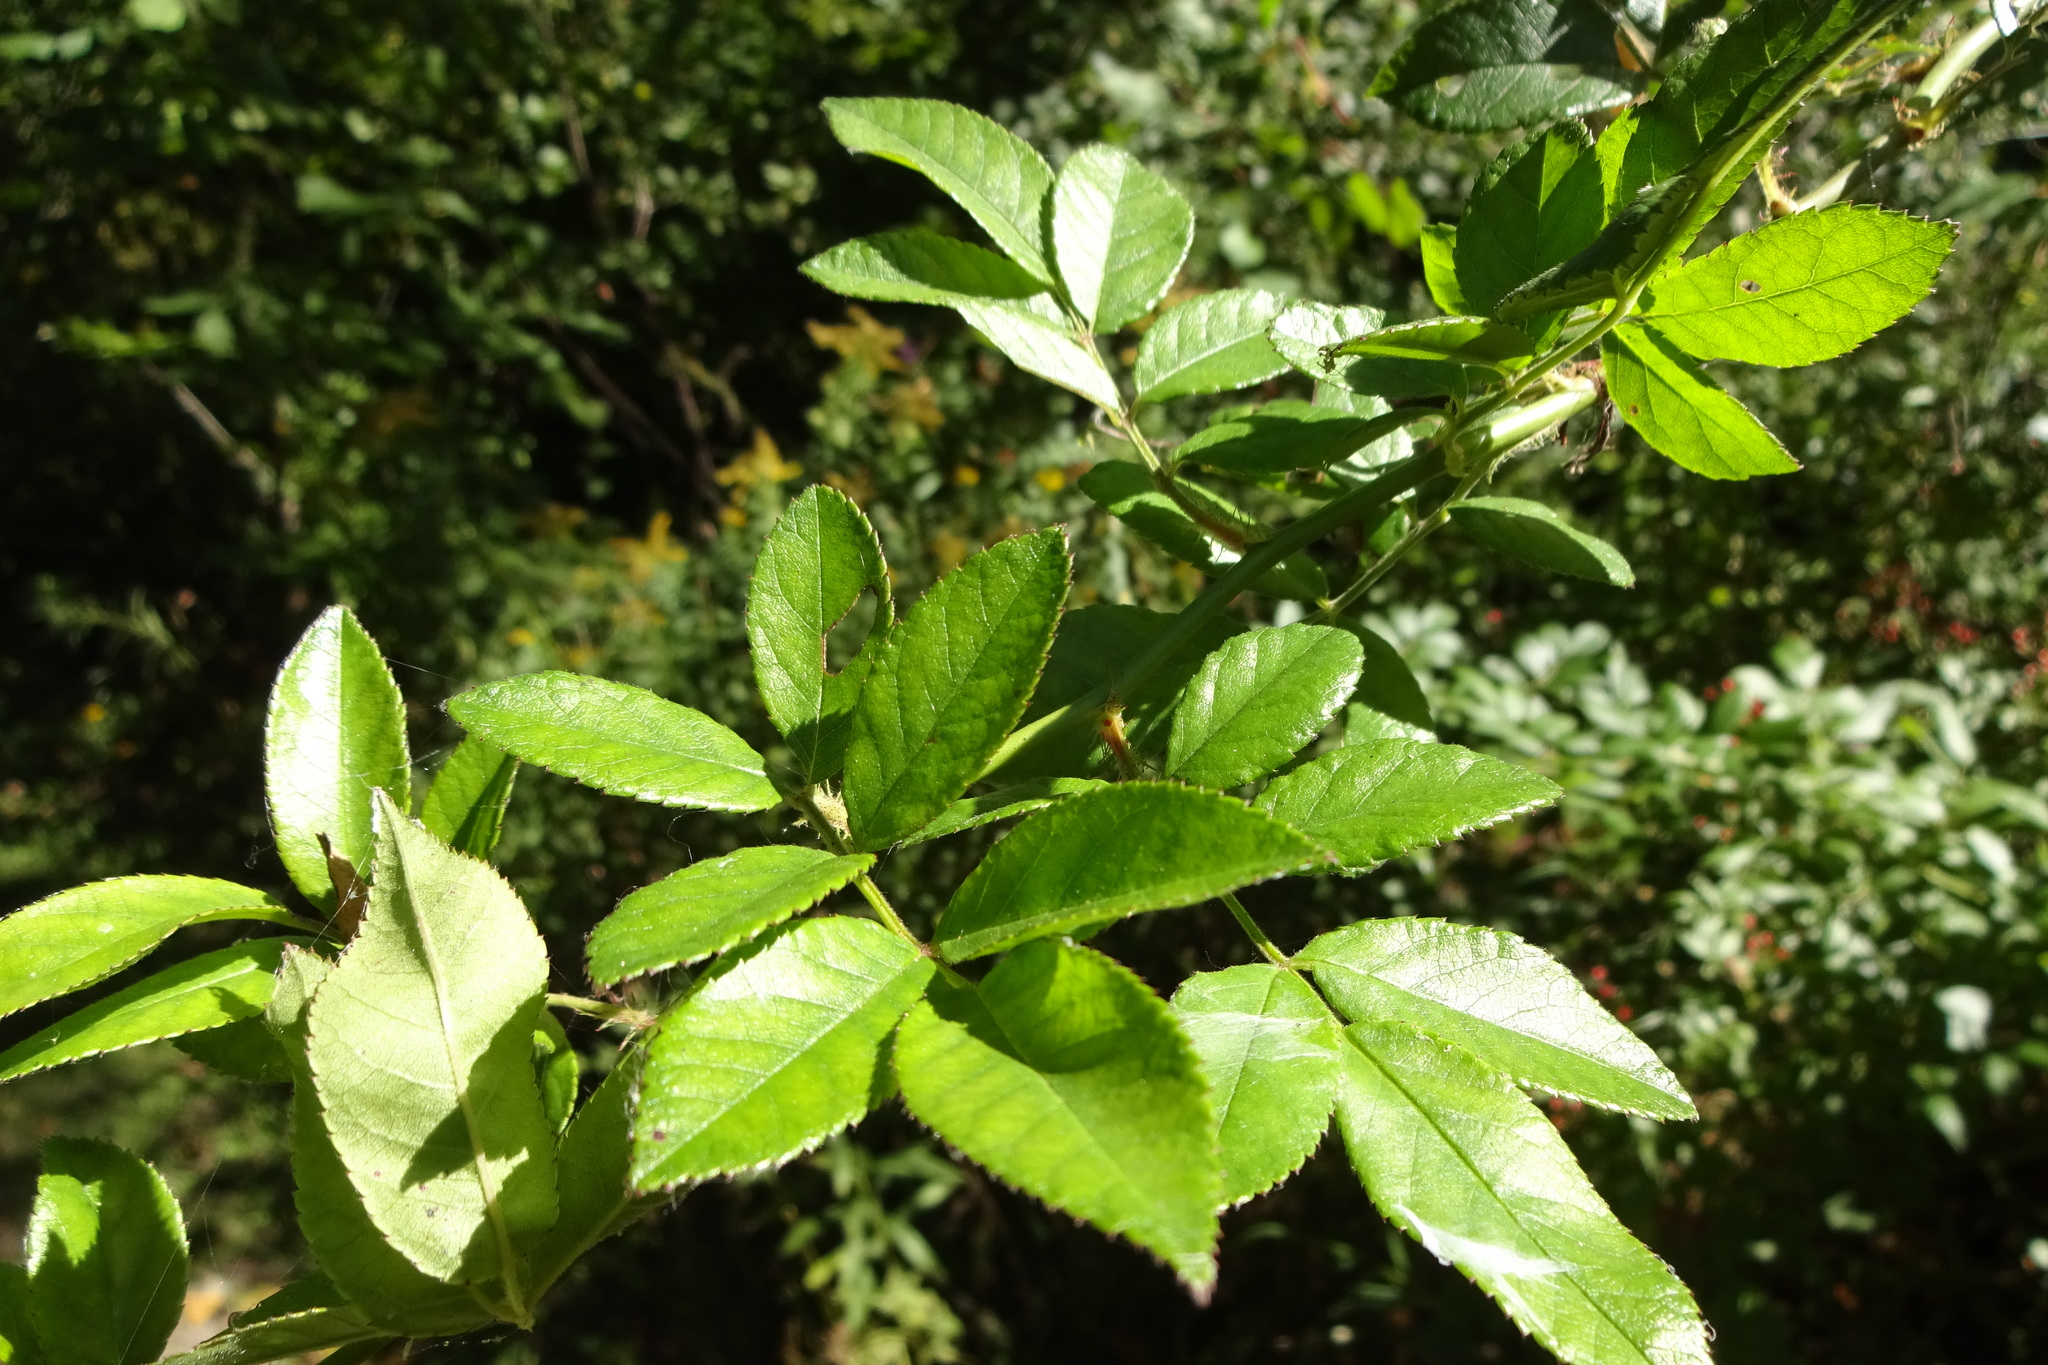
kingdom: Plantae
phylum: Tracheophyta
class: Magnoliopsida
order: Rosales
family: Rosaceae
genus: Rosa
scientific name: Rosa multiflora
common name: Multiflora rose
